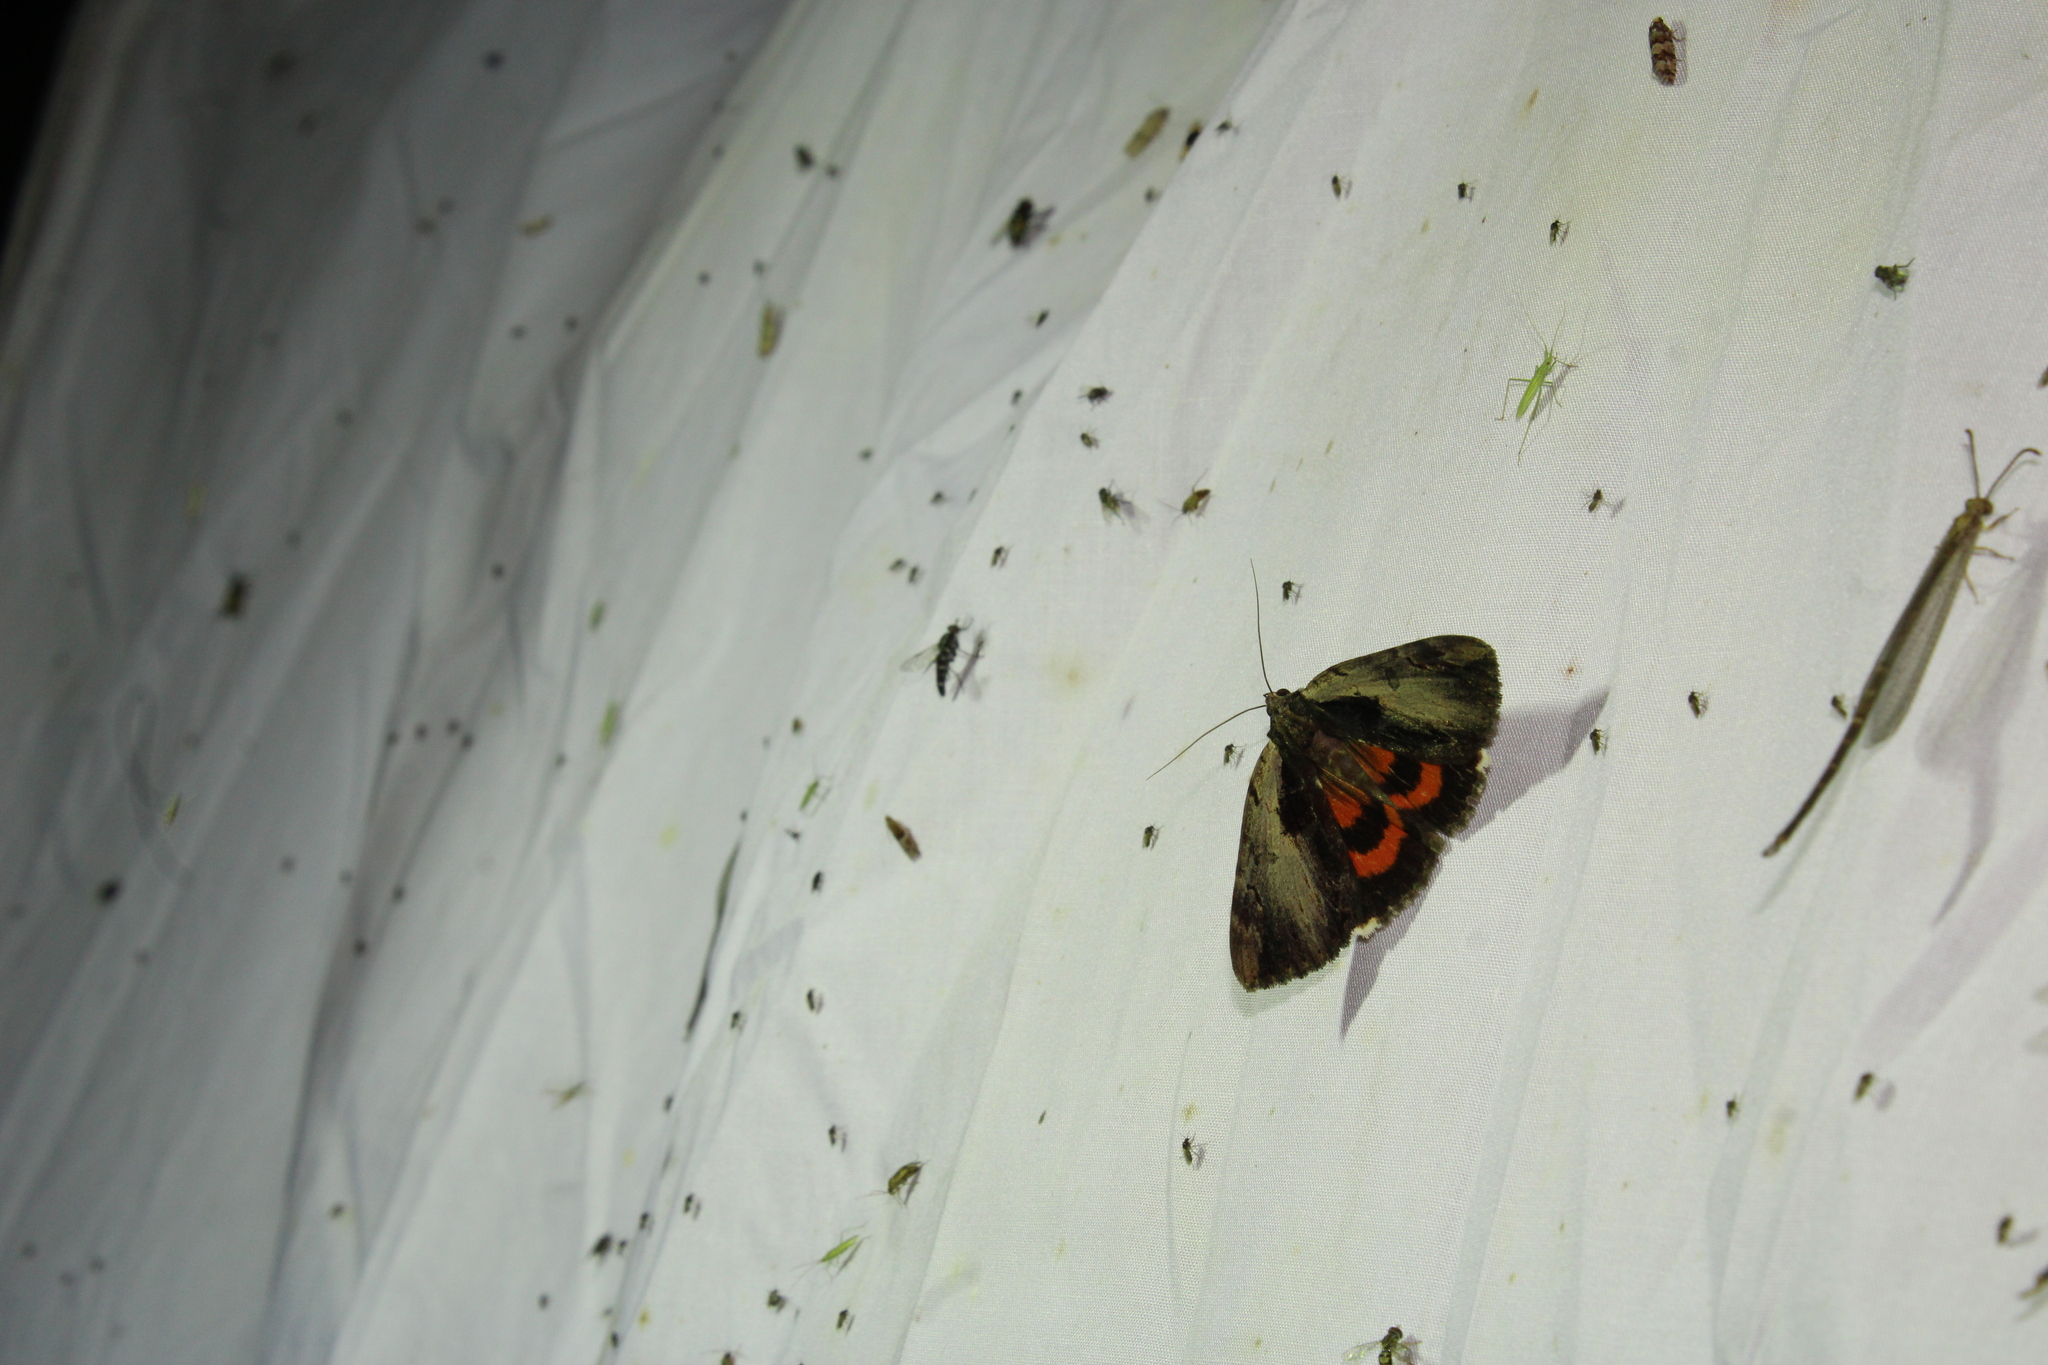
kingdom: Animalia
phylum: Arthropoda
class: Insecta
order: Lepidoptera
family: Erebidae
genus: Catocala
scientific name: Catocala ultronia
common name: Ultronia underwing
